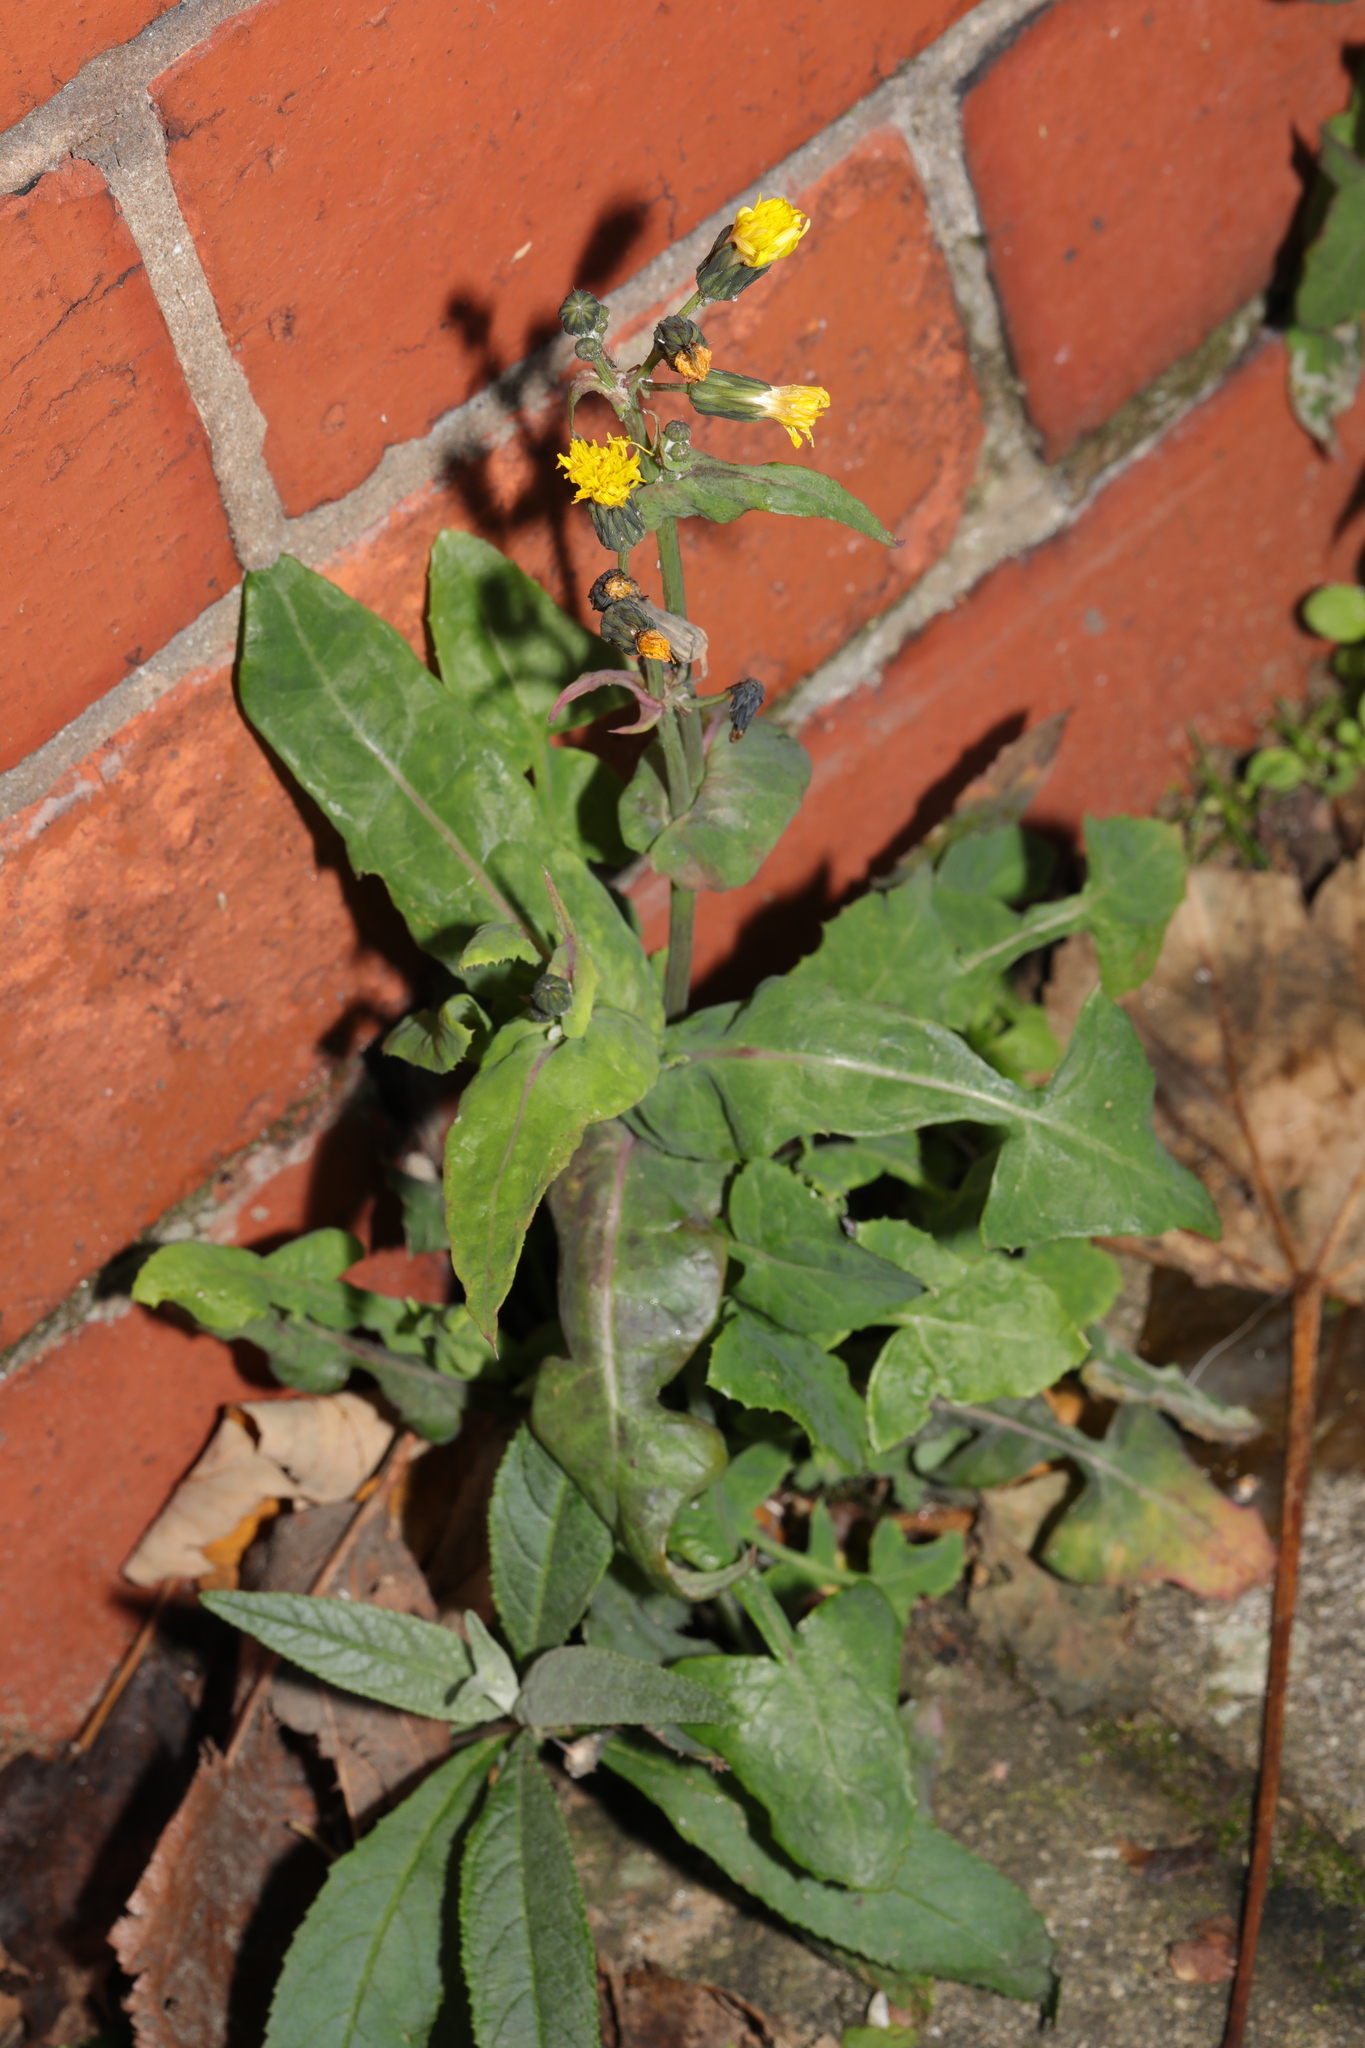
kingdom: Plantae
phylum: Tracheophyta
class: Magnoliopsida
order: Asterales
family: Asteraceae
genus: Sonchus
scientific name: Sonchus oleraceus
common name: Common sowthistle
